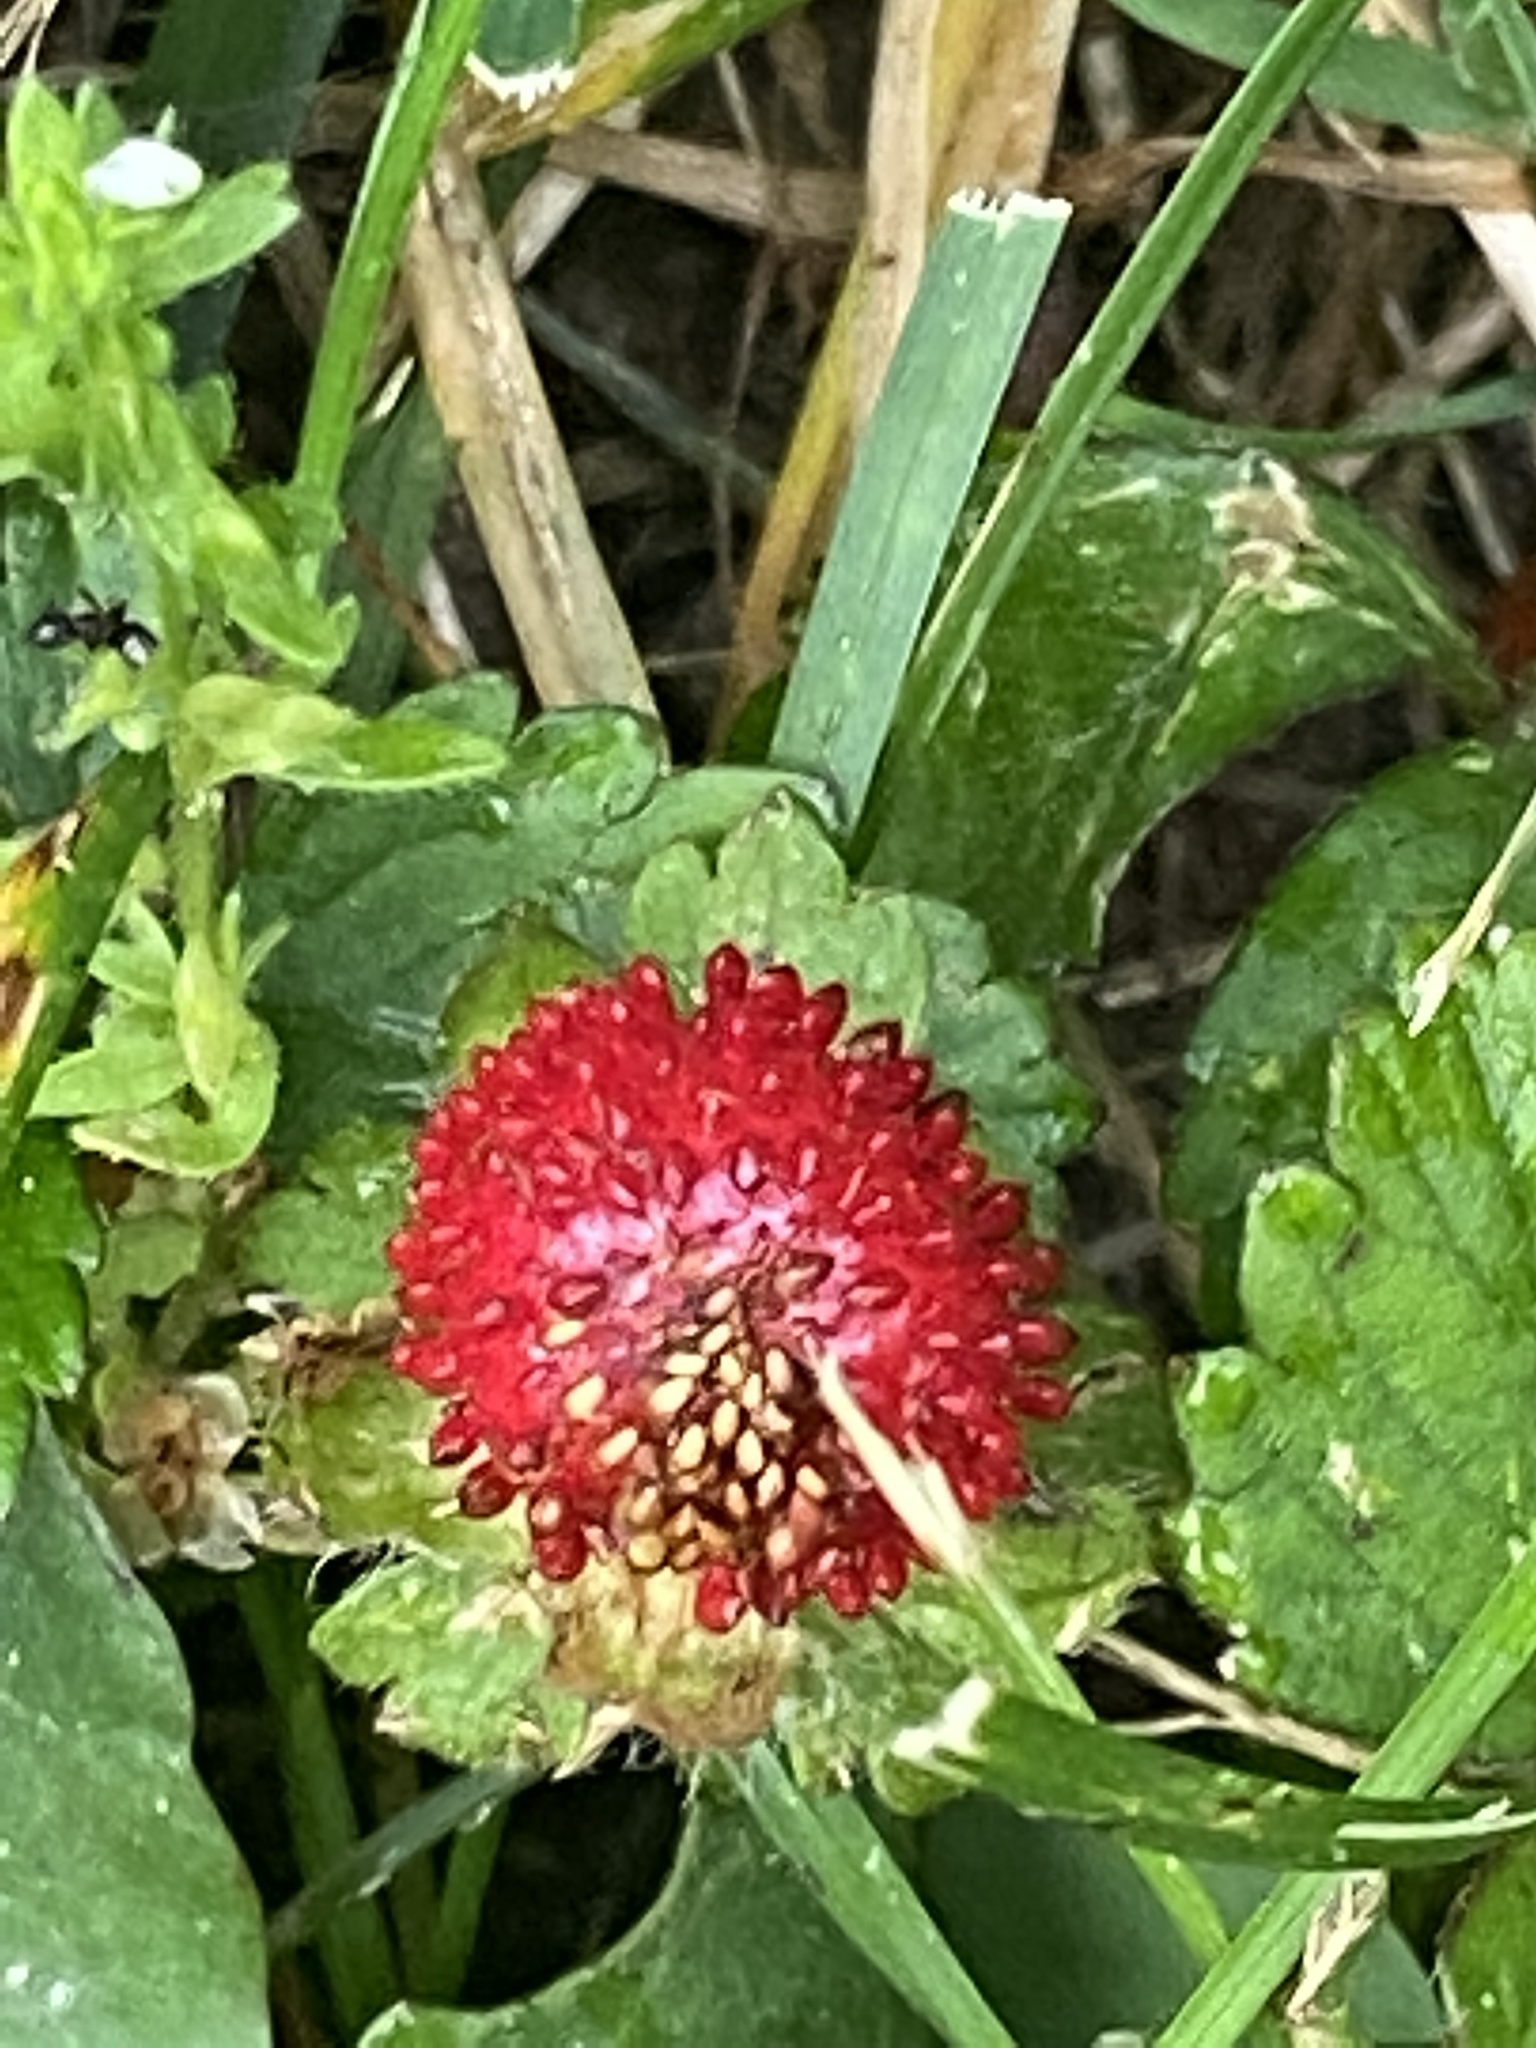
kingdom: Plantae
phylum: Tracheophyta
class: Magnoliopsida
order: Rosales
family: Rosaceae
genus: Potentilla
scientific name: Potentilla indica
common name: Yellow-flowered strawberry
